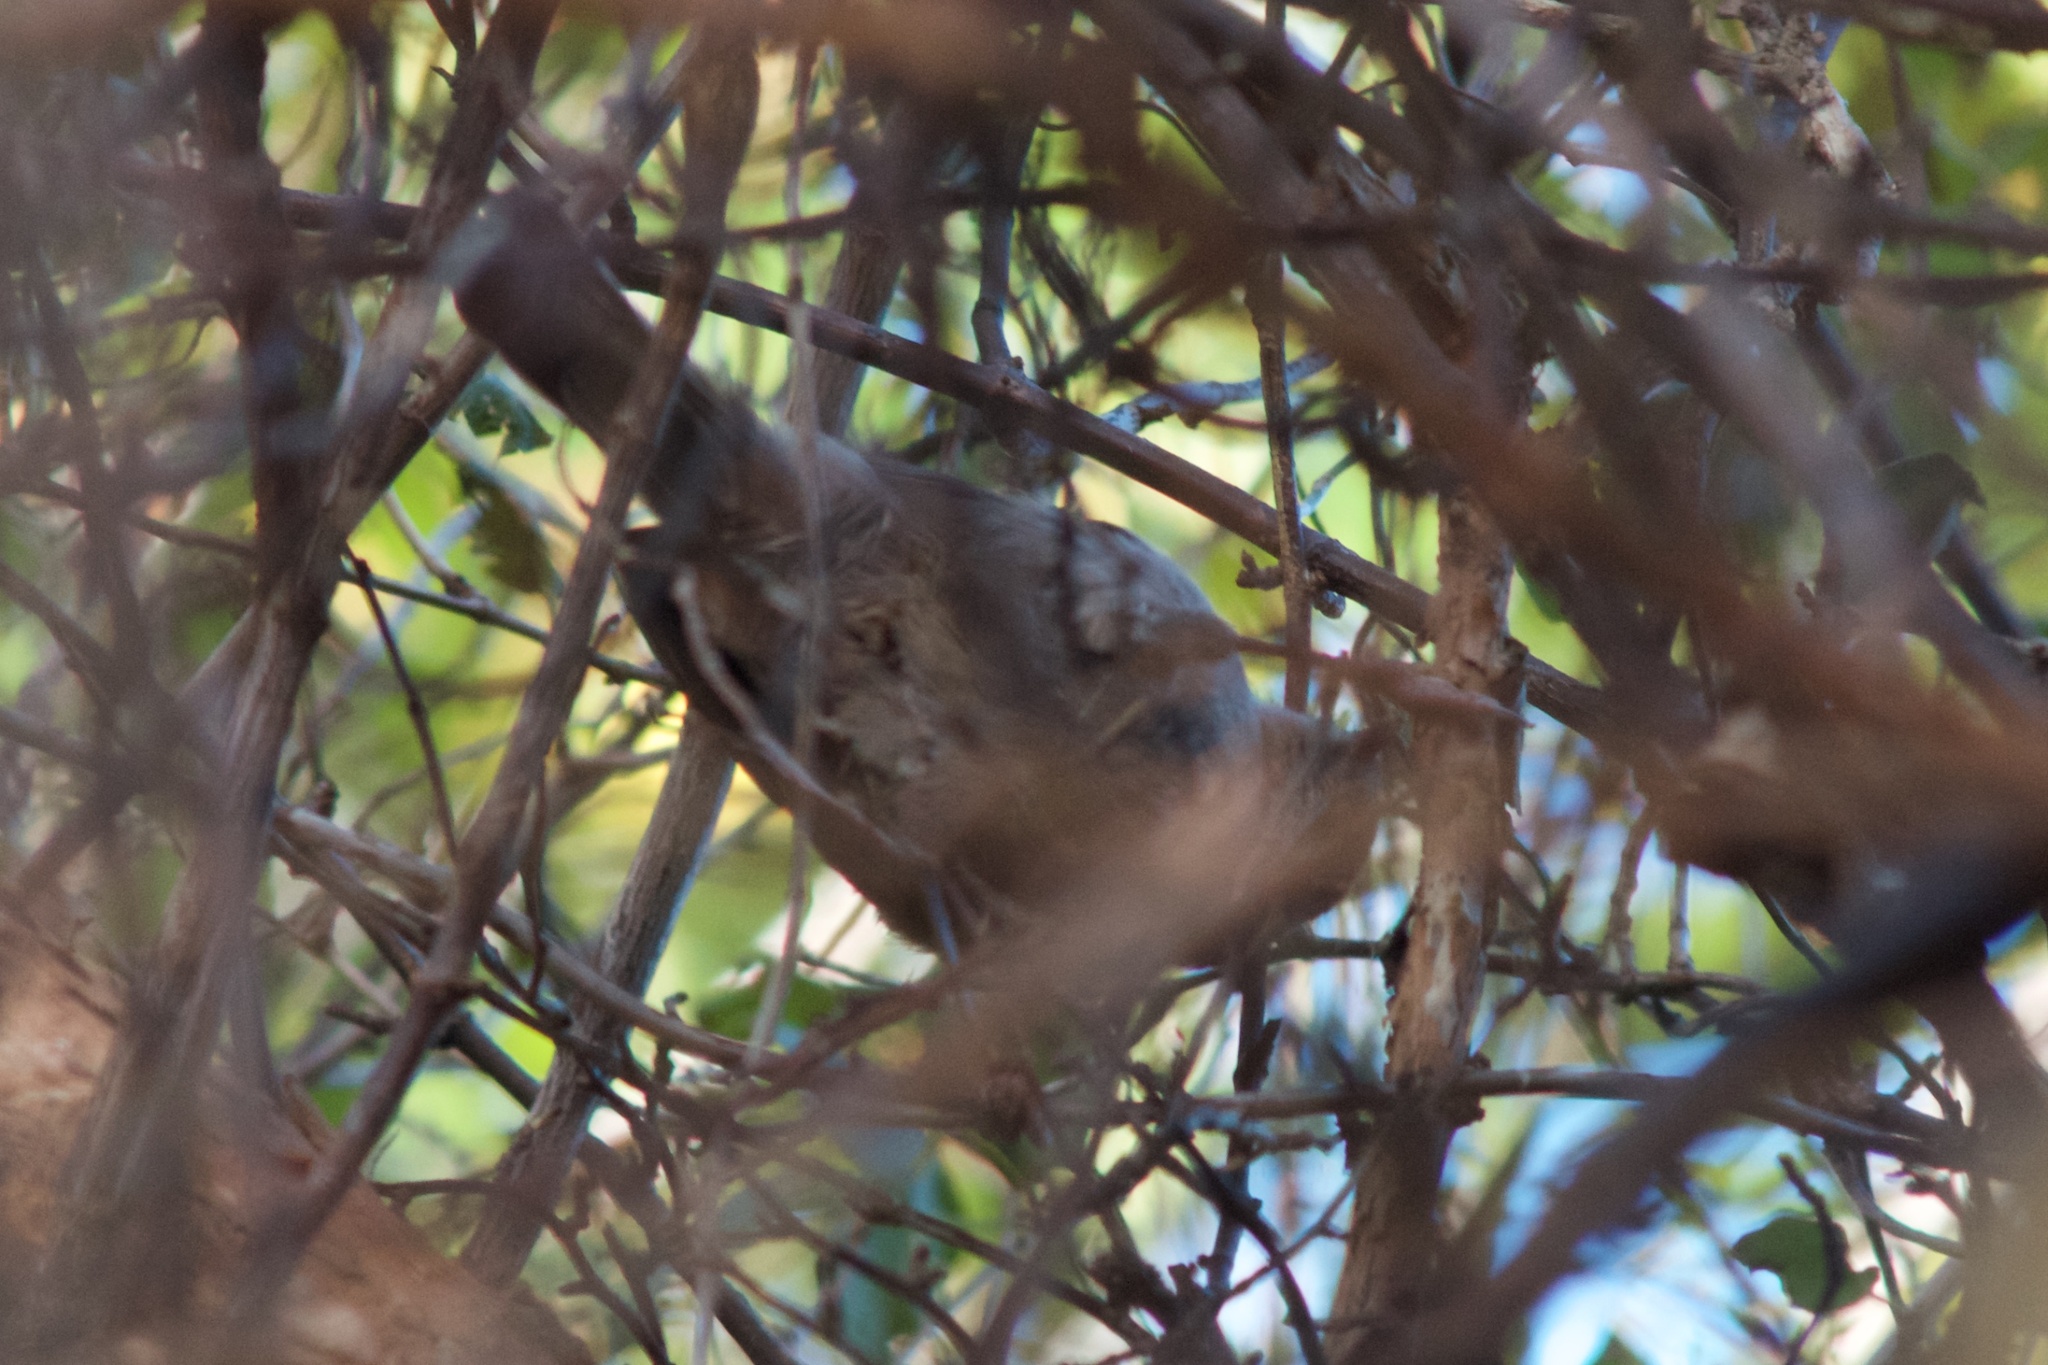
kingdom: Animalia
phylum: Chordata
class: Aves
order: Passeriformes
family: Acanthizidae
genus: Finschia
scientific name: Finschia novaeseelandiae
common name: Pipipi
